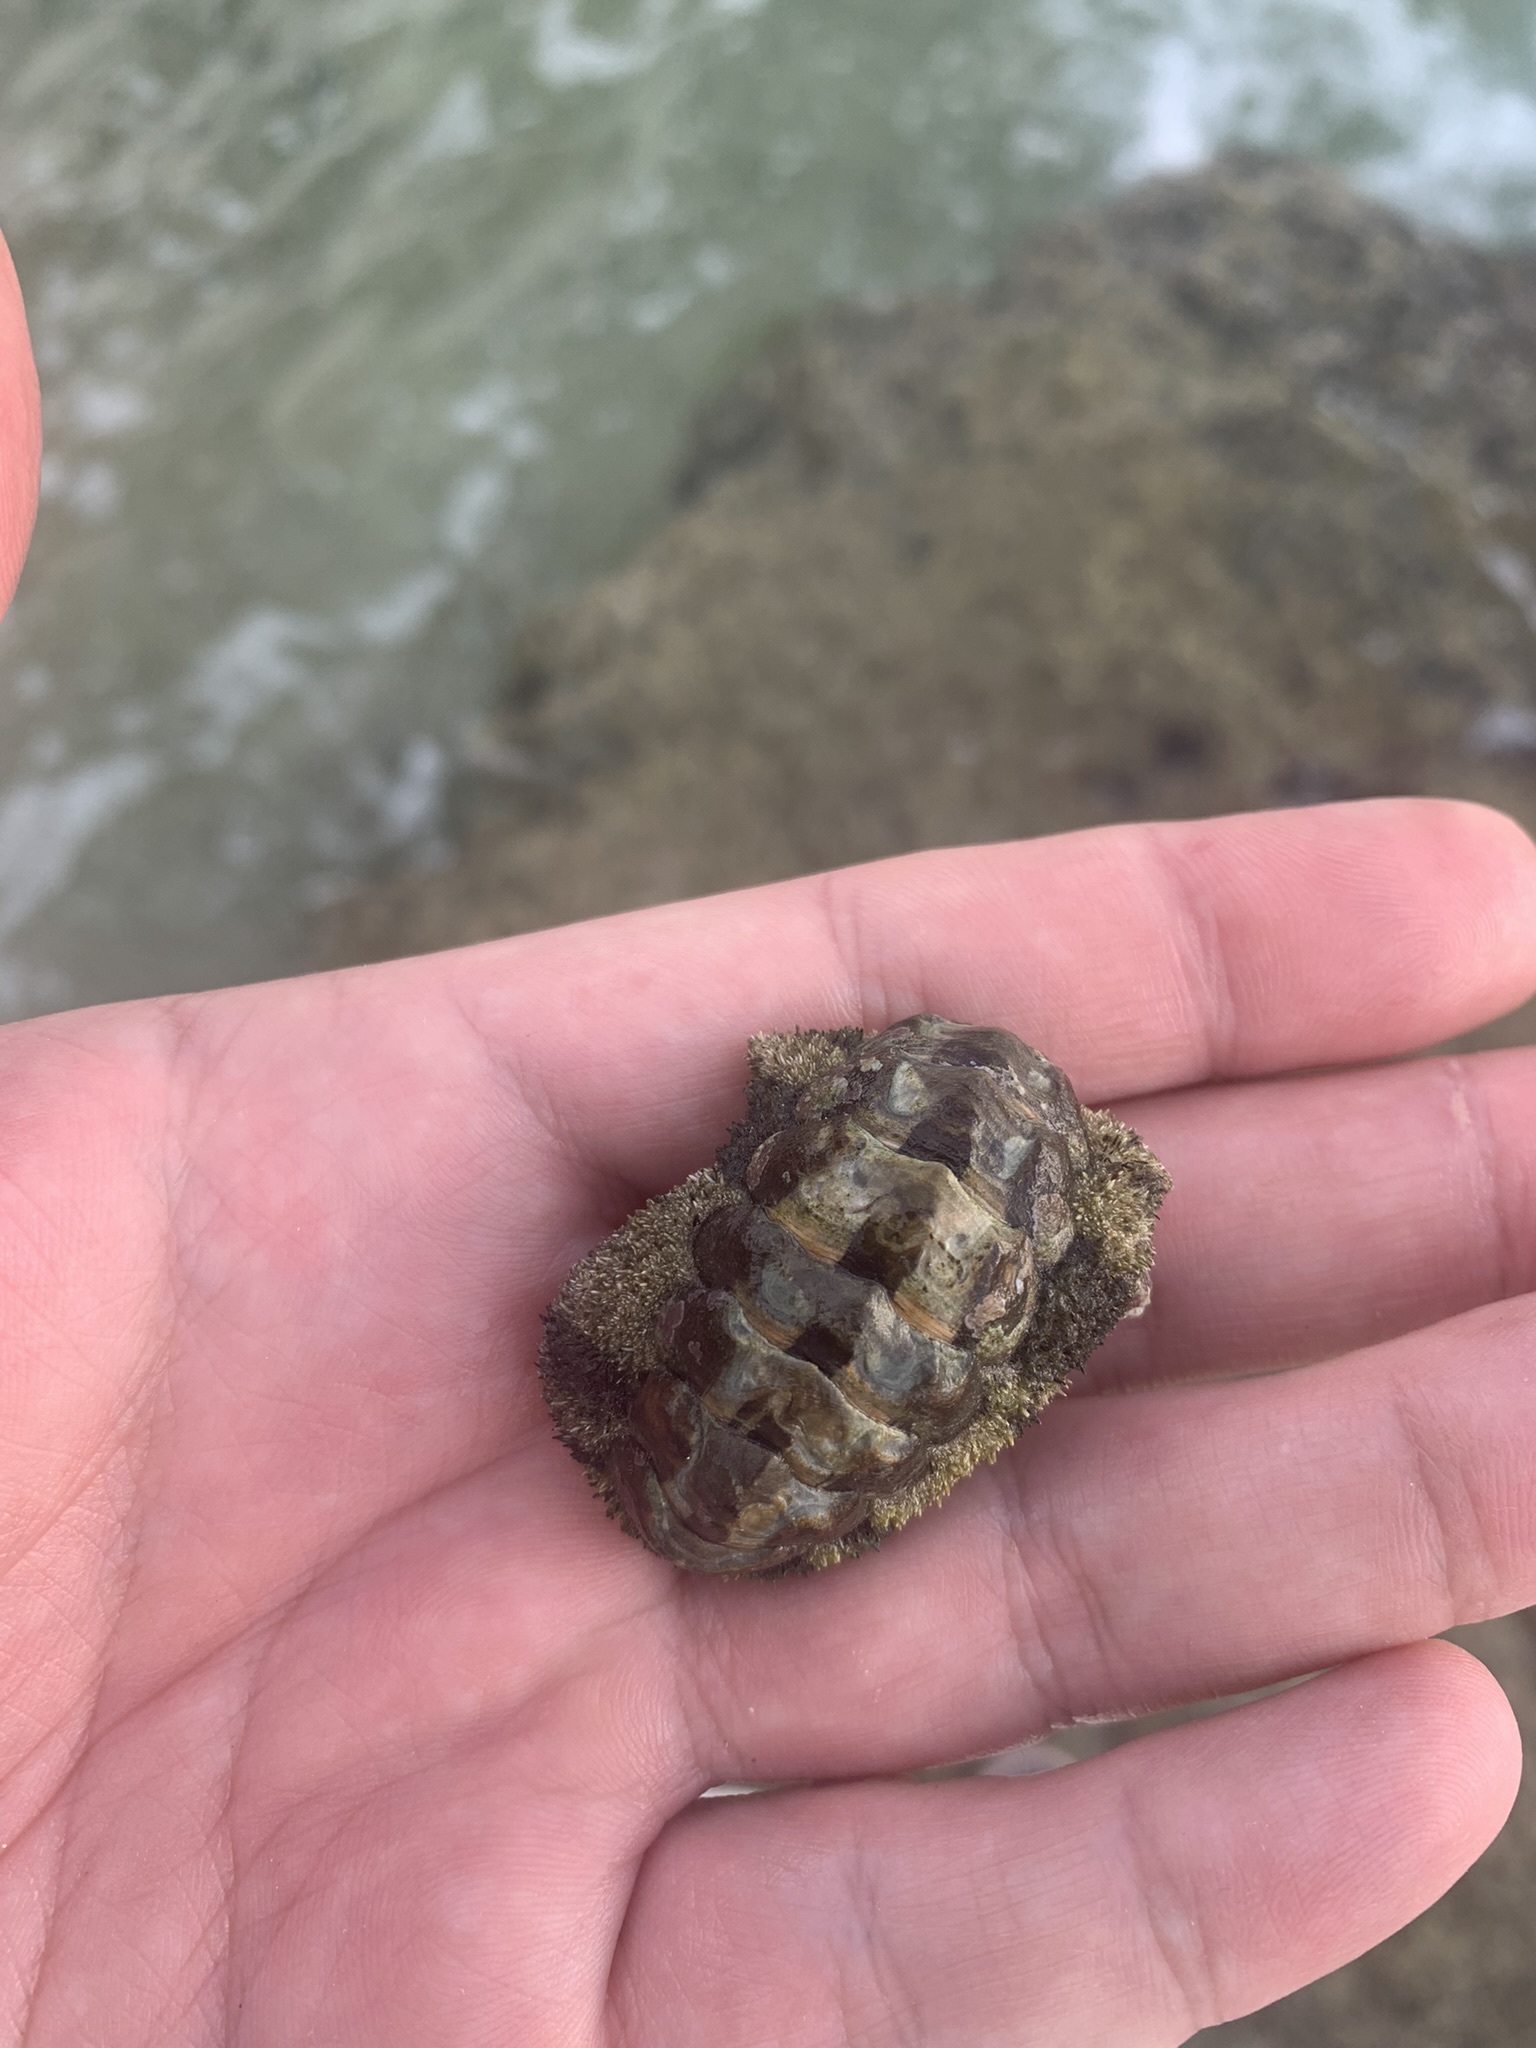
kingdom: Animalia
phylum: Mollusca
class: Polyplacophora
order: Chitonida
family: Chitonidae
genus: Acanthopleura
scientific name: Acanthopleura granulata
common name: West indian fuzzy chiton
